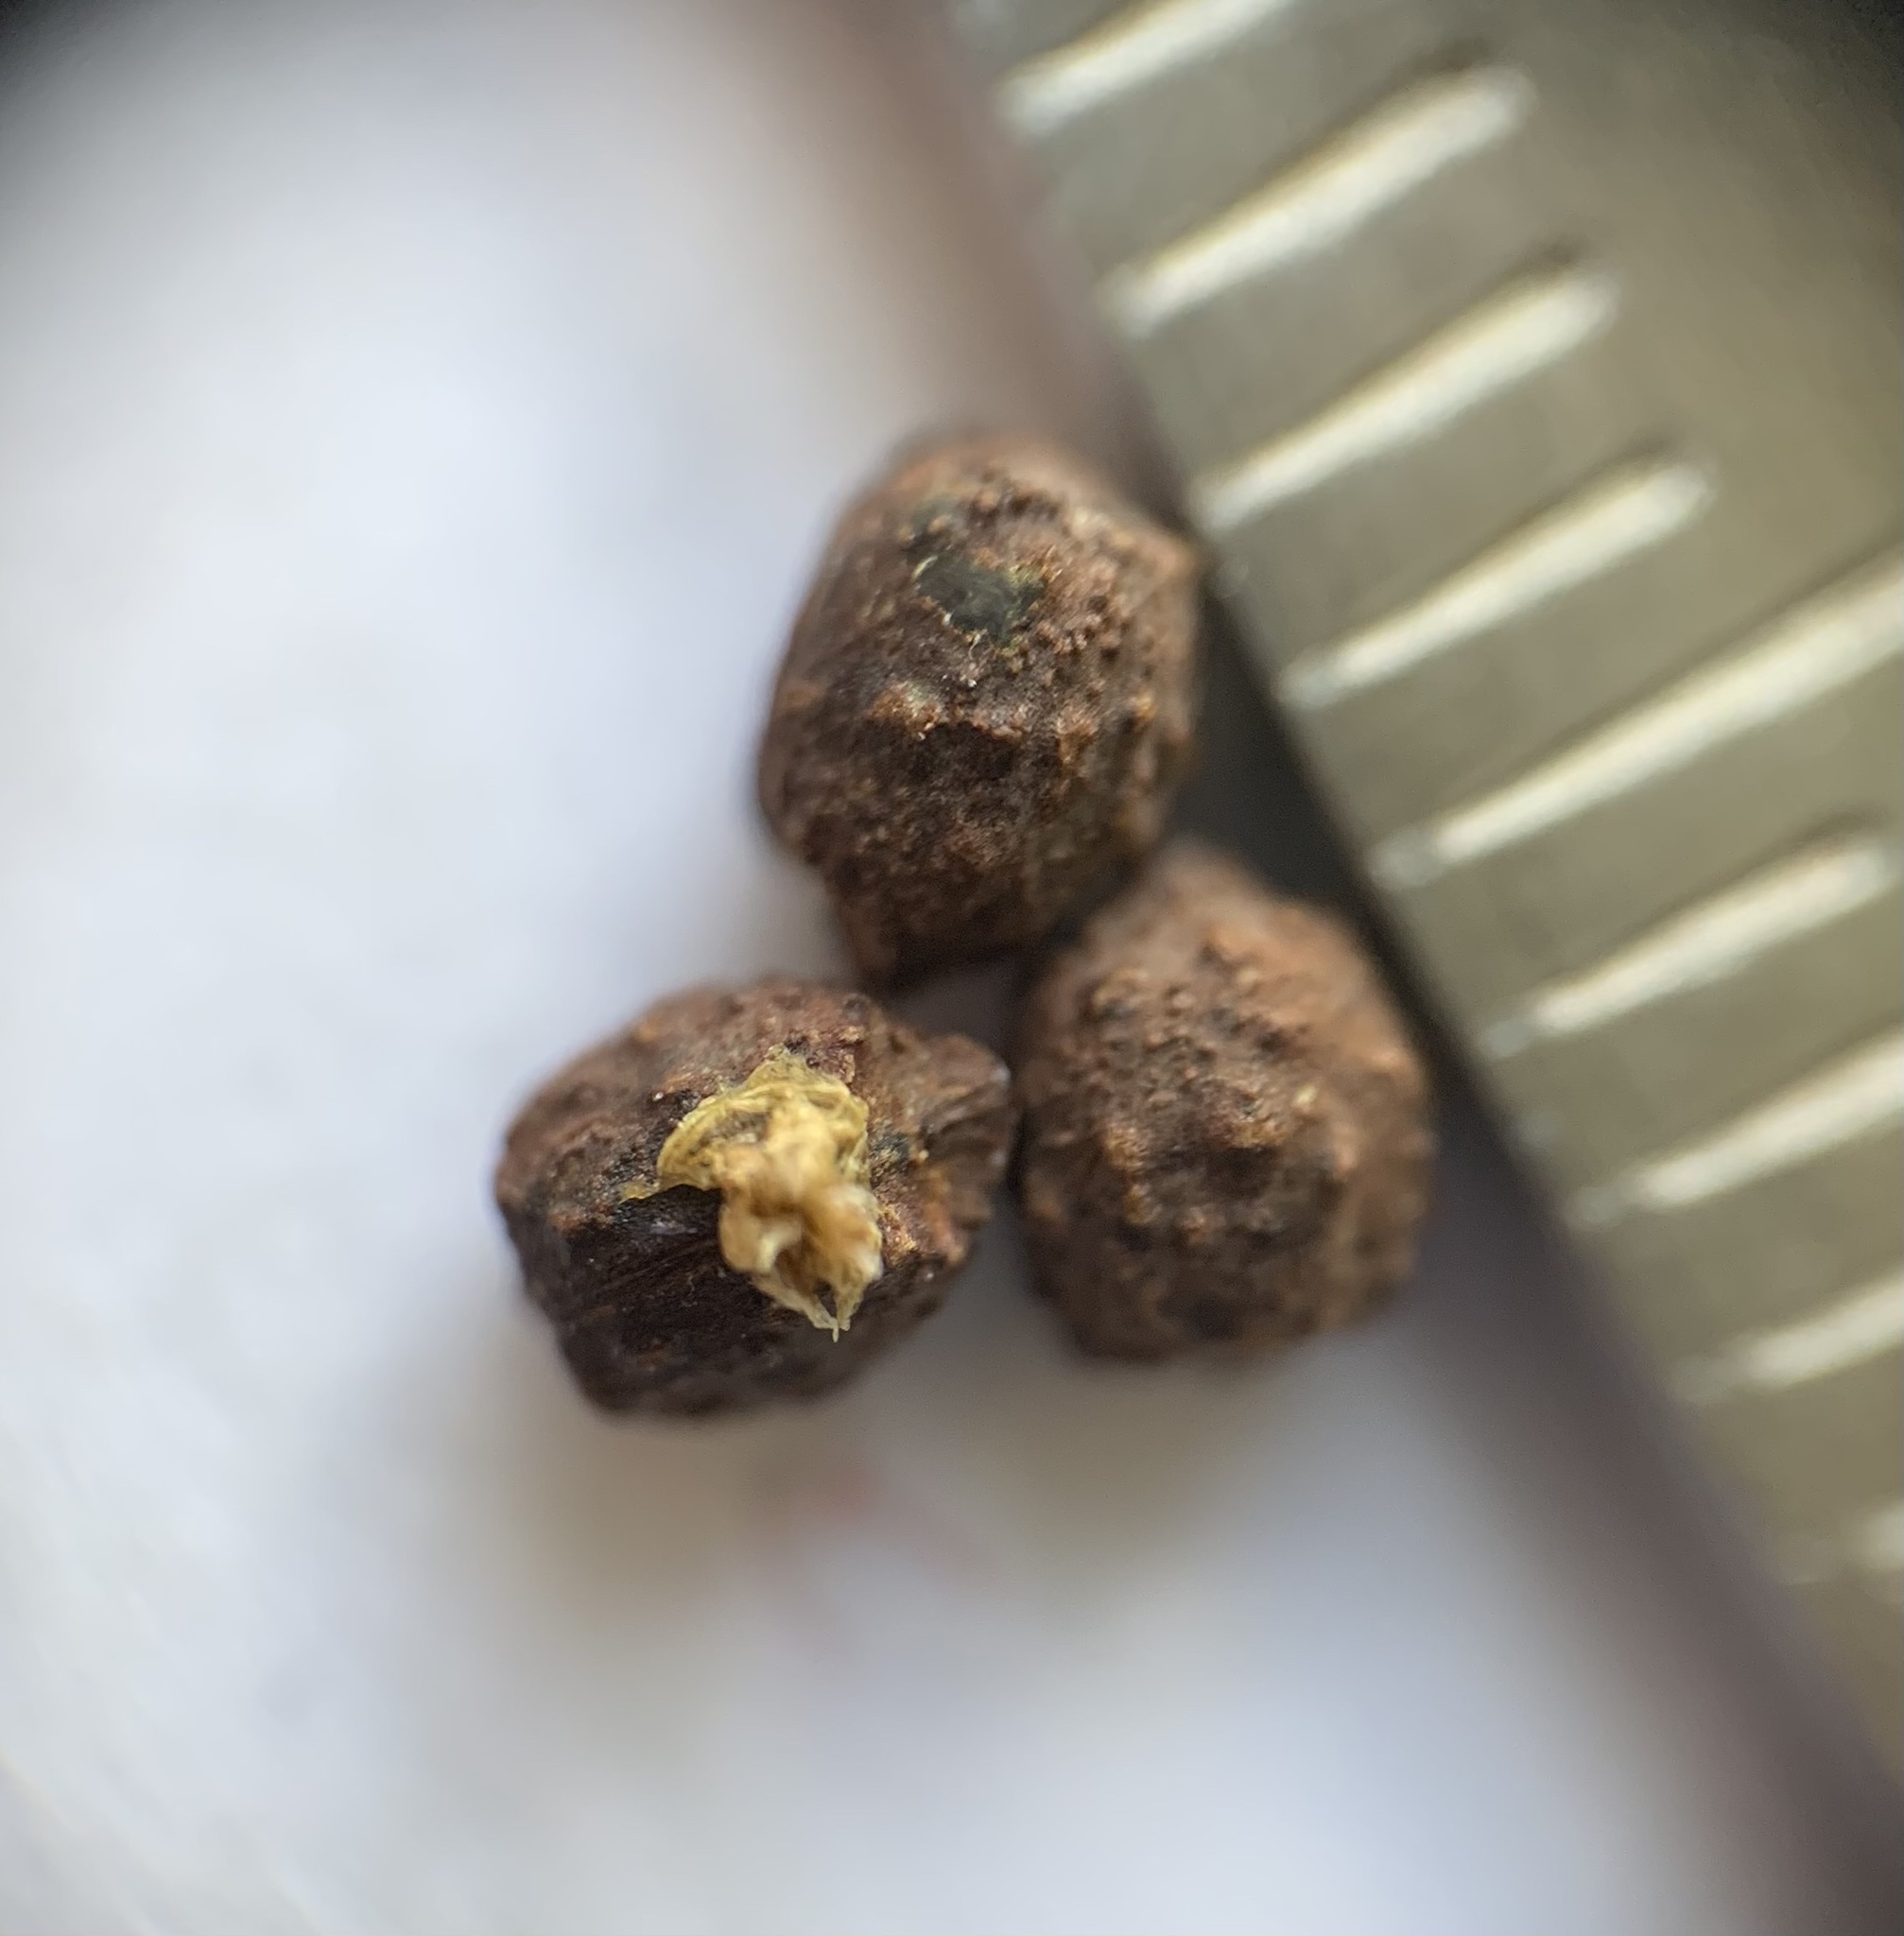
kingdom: Plantae
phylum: Tracheophyta
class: Magnoliopsida
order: Malpighiales
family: Euphorbiaceae
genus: Euphorbia
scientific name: Euphorbia heterophylla
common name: Mexican fireplant
